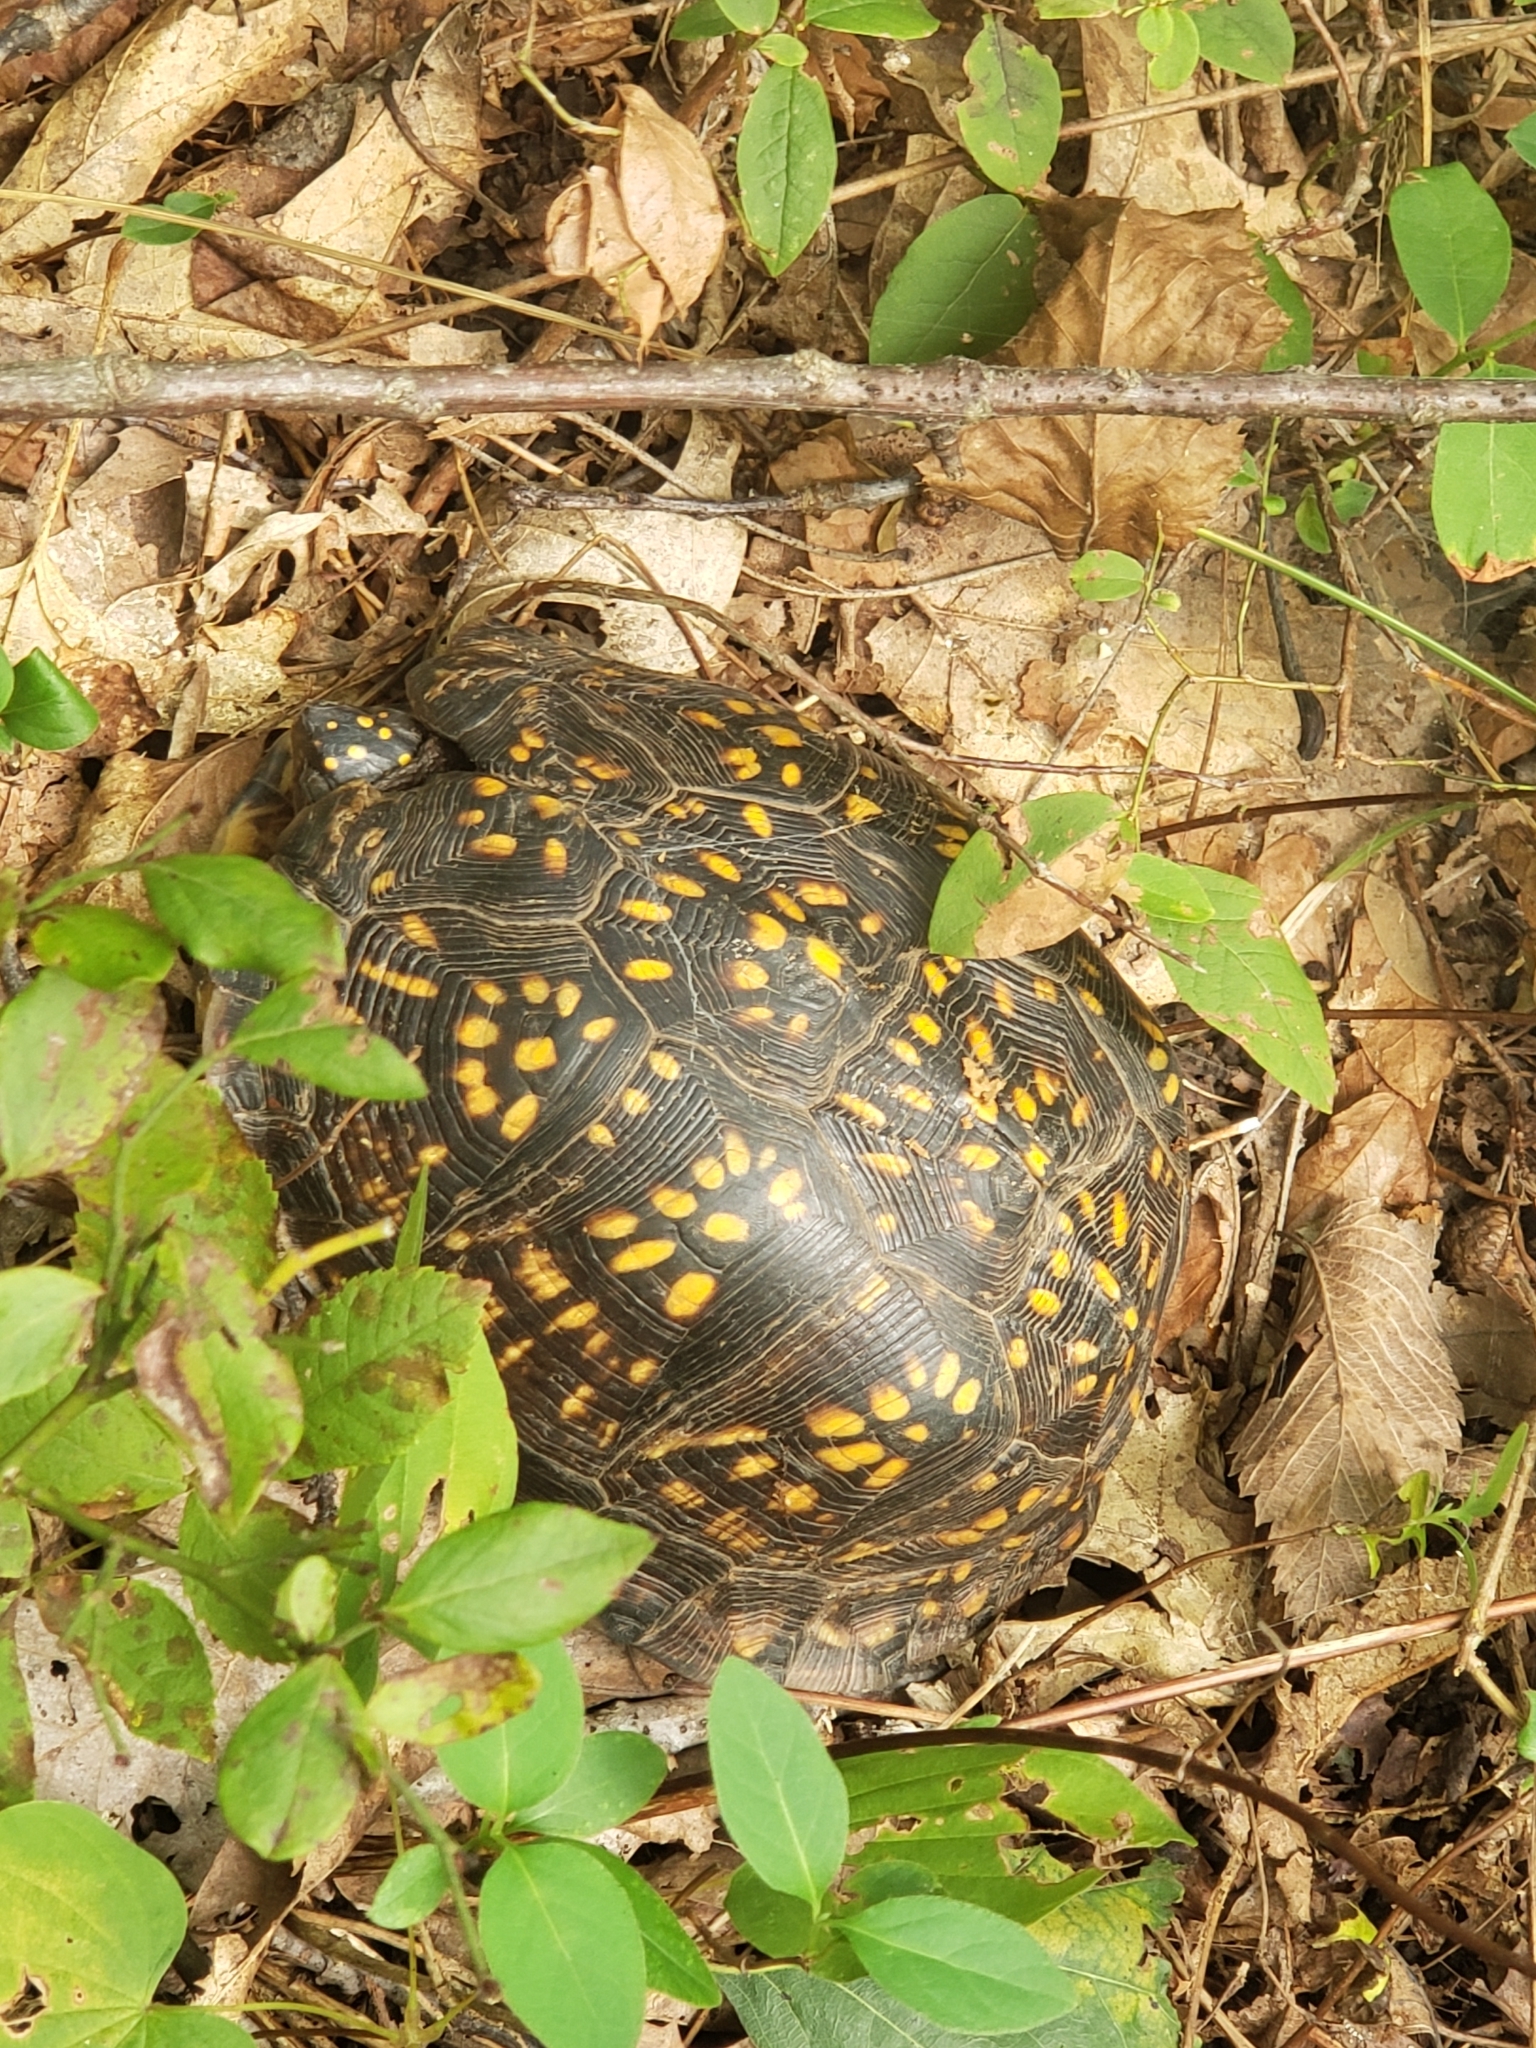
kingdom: Animalia
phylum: Chordata
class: Testudines
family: Emydidae
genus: Terrapene
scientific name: Terrapene carolina
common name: Common box turtle
